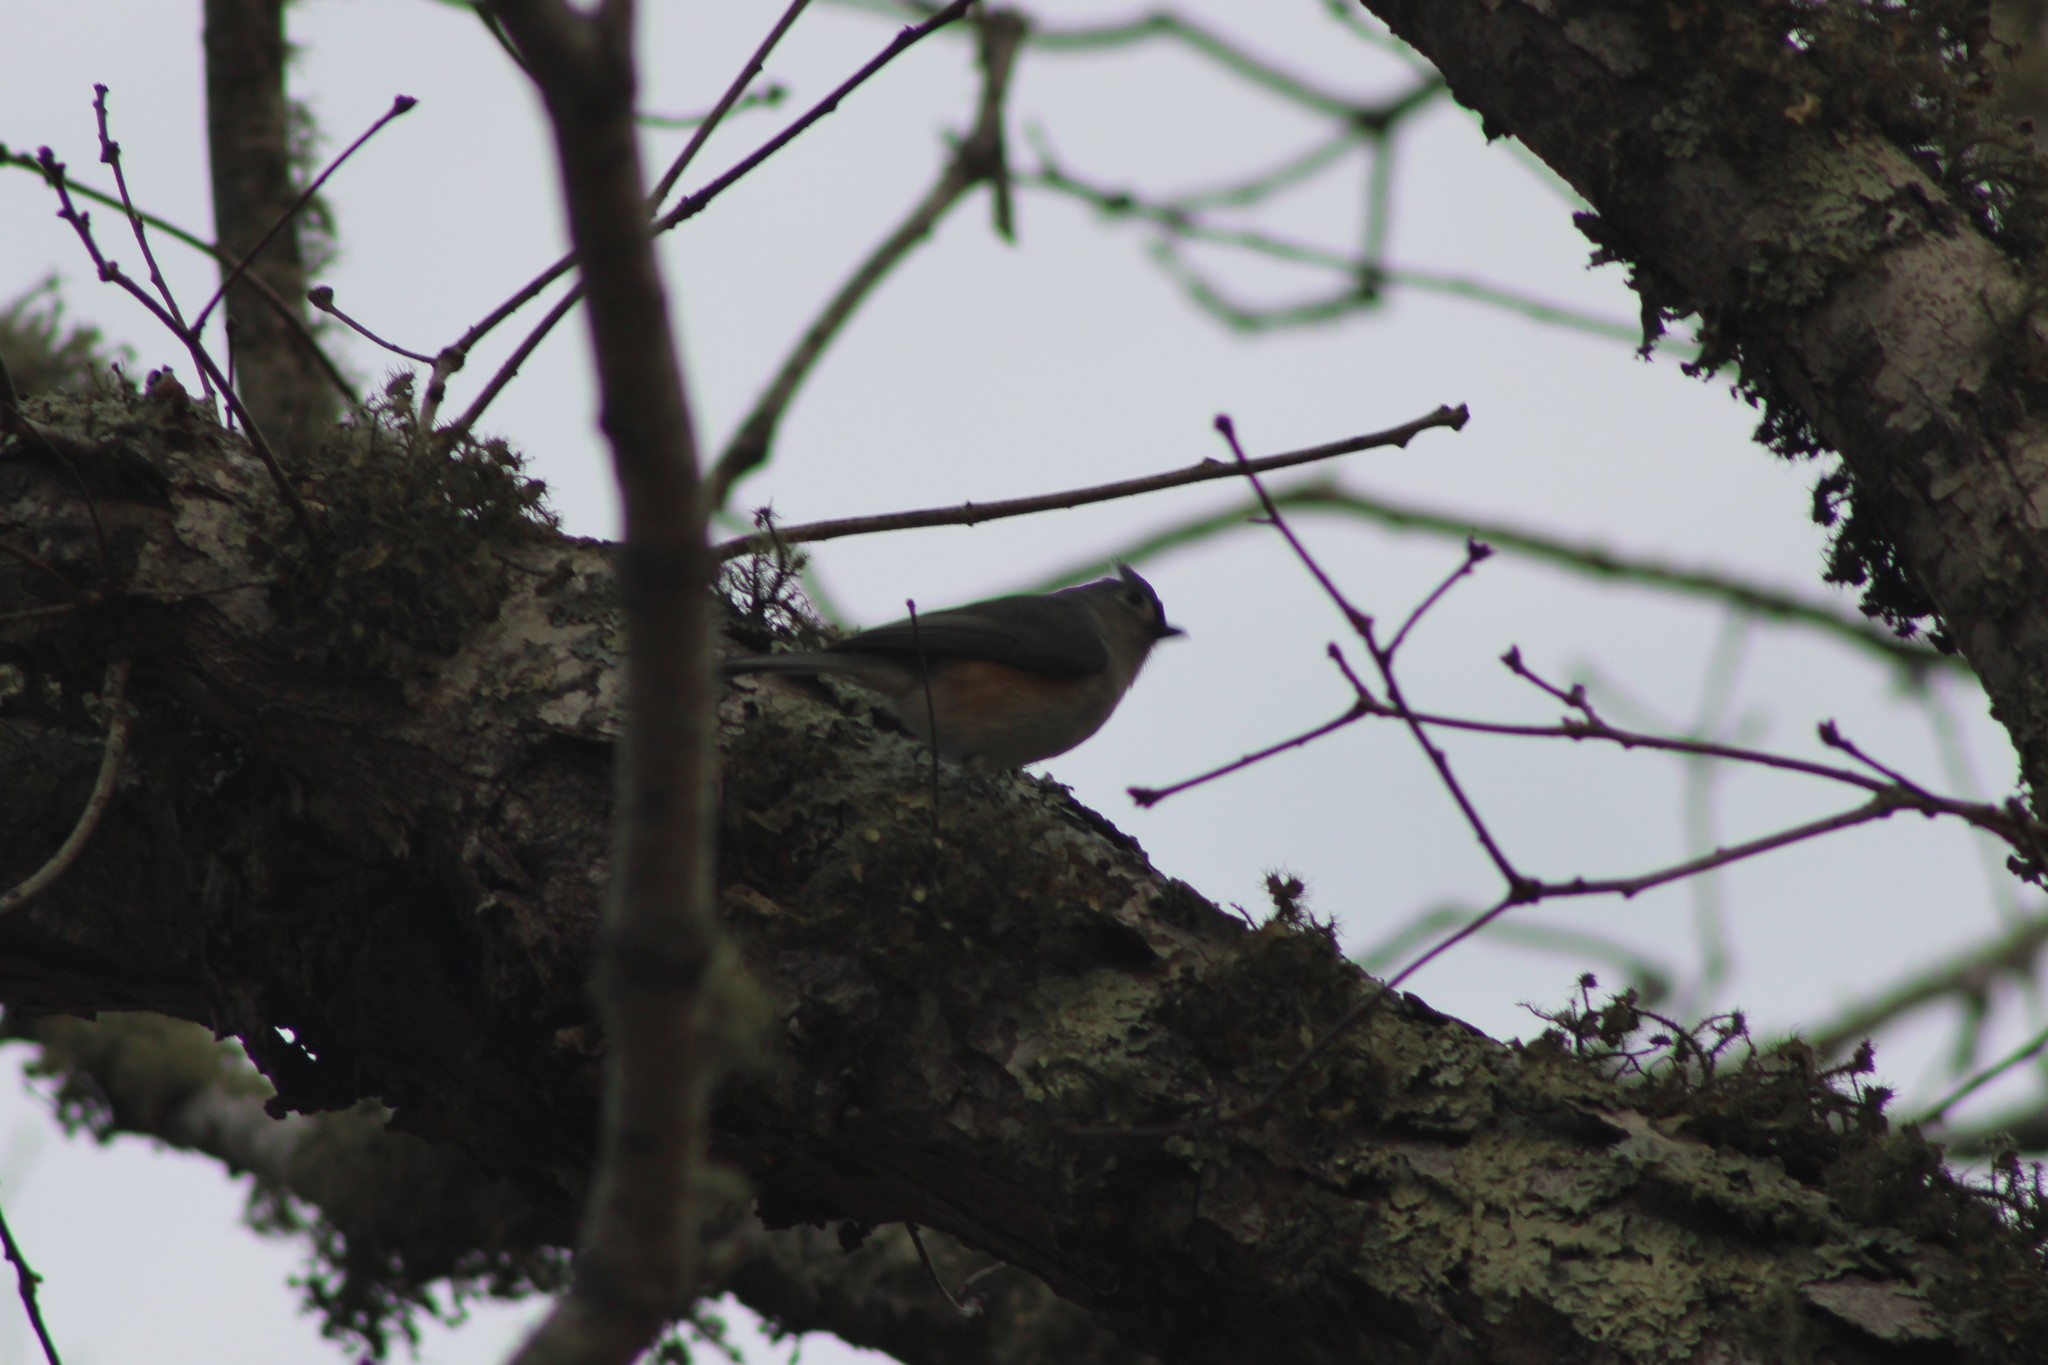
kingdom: Animalia
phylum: Chordata
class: Aves
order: Passeriformes
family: Paridae
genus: Baeolophus
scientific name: Baeolophus bicolor
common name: Tufted titmouse
